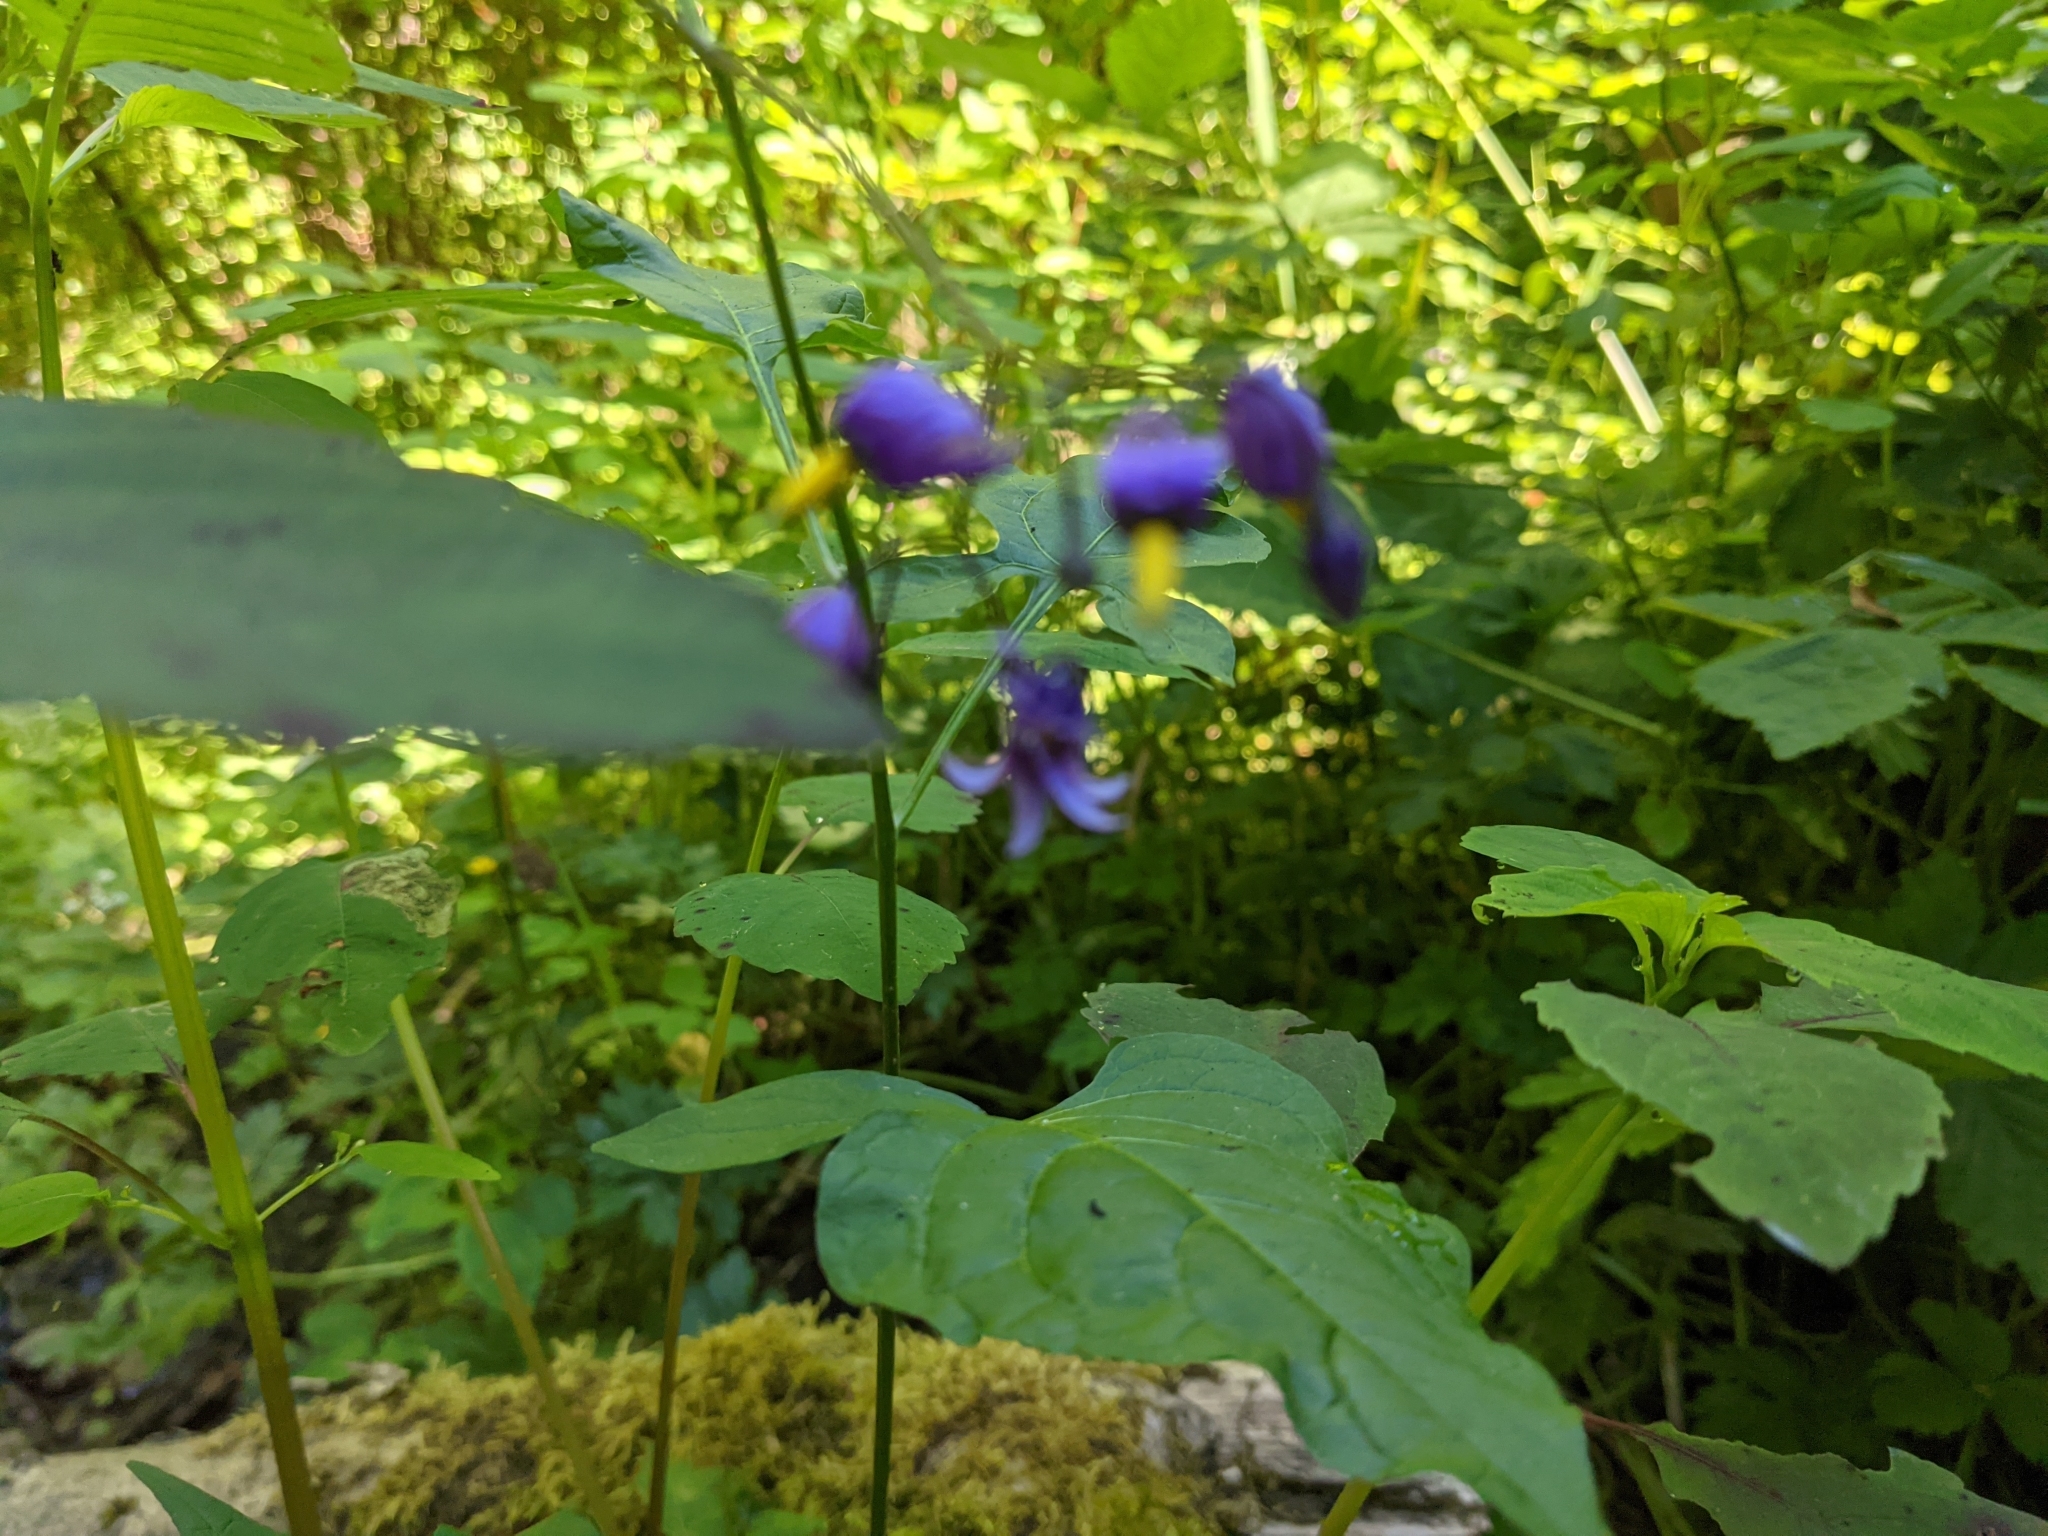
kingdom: Plantae
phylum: Tracheophyta
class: Magnoliopsida
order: Solanales
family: Solanaceae
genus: Solanum
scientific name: Solanum dulcamara
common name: Climbing nightshade
